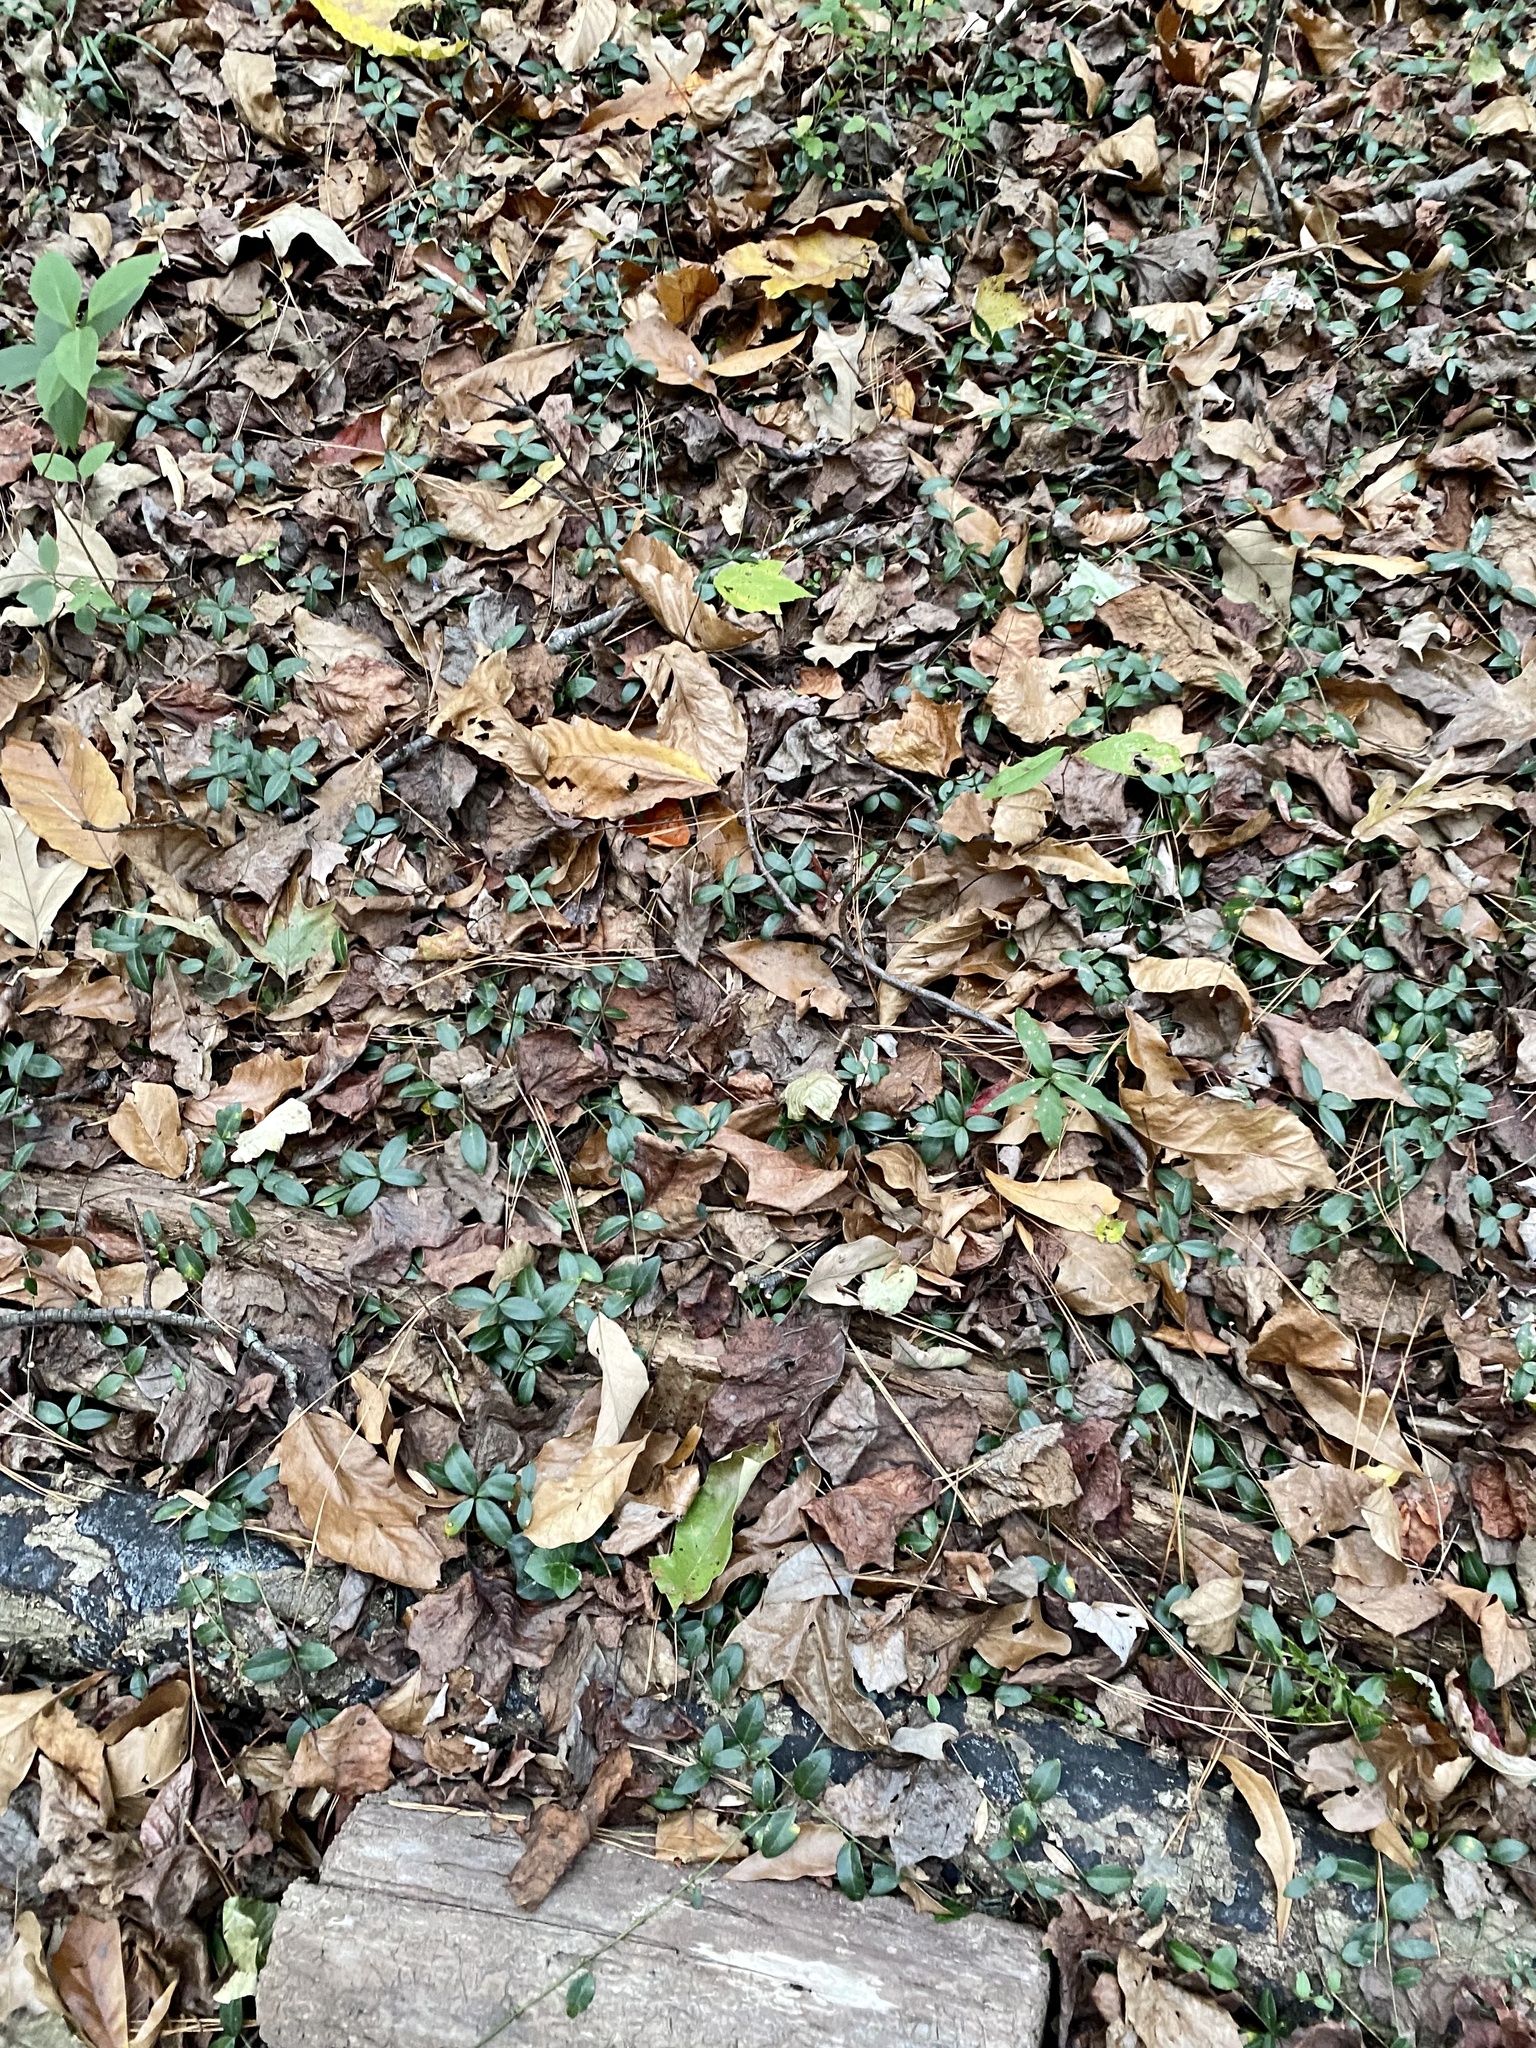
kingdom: Plantae
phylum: Tracheophyta
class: Magnoliopsida
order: Gentianales
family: Apocynaceae
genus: Vinca
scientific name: Vinca minor
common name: Lesser periwinkle
